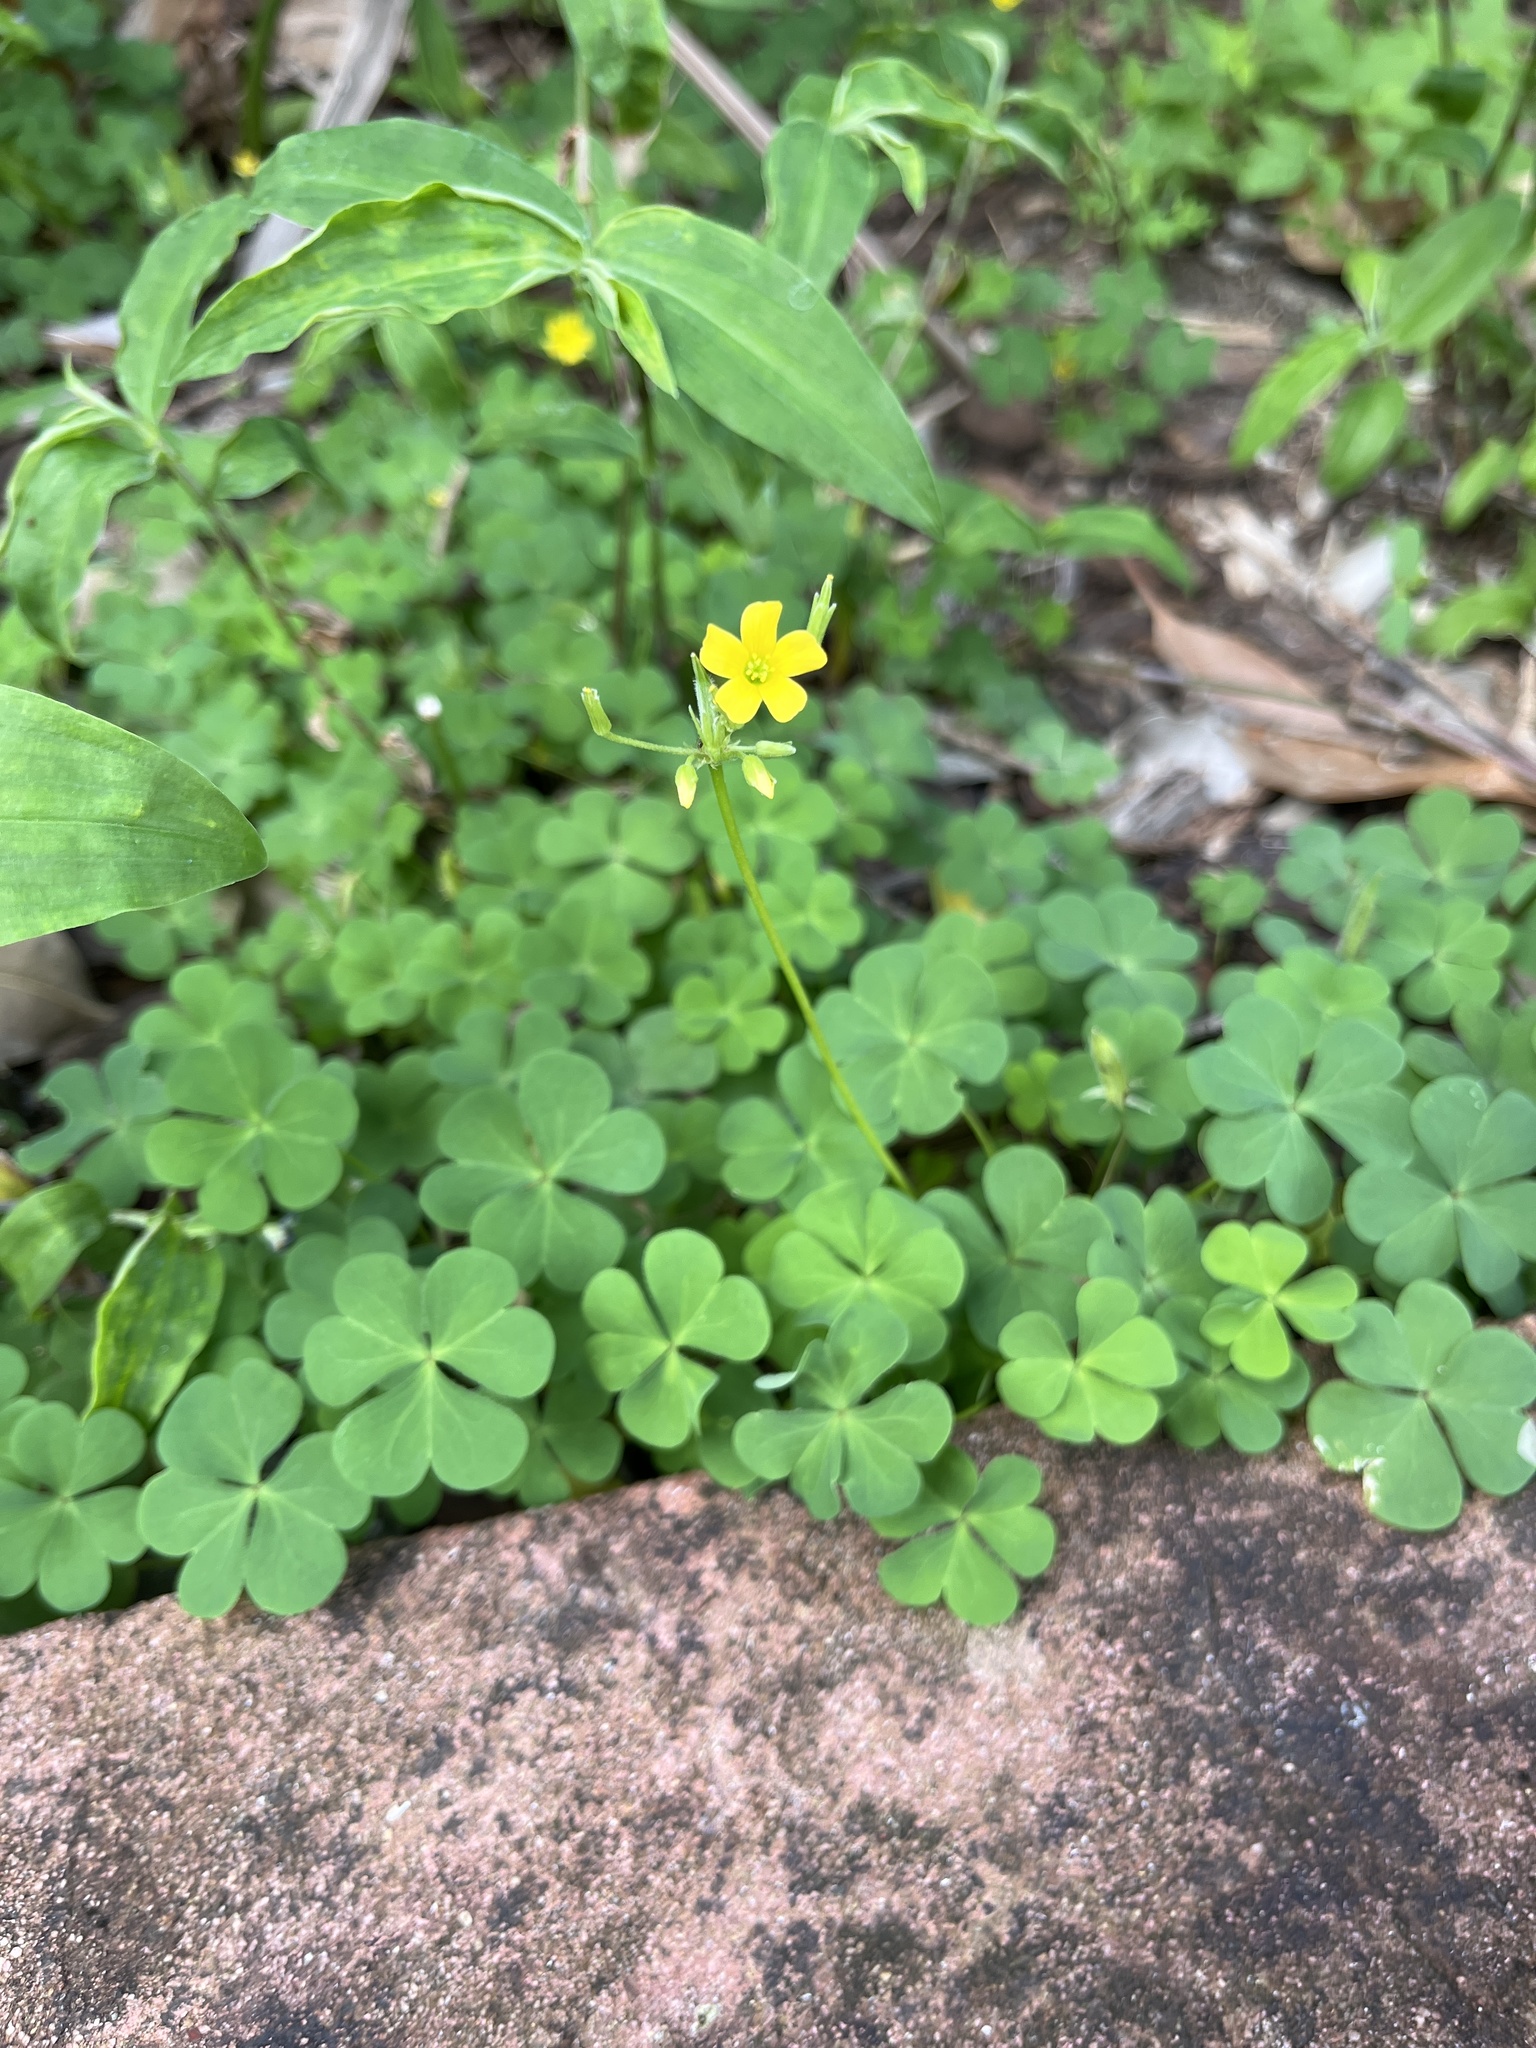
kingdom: Plantae
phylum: Tracheophyta
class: Magnoliopsida
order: Oxalidales
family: Oxalidaceae
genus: Oxalis
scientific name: Oxalis corniculata
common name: Procumbent yellow-sorrel
